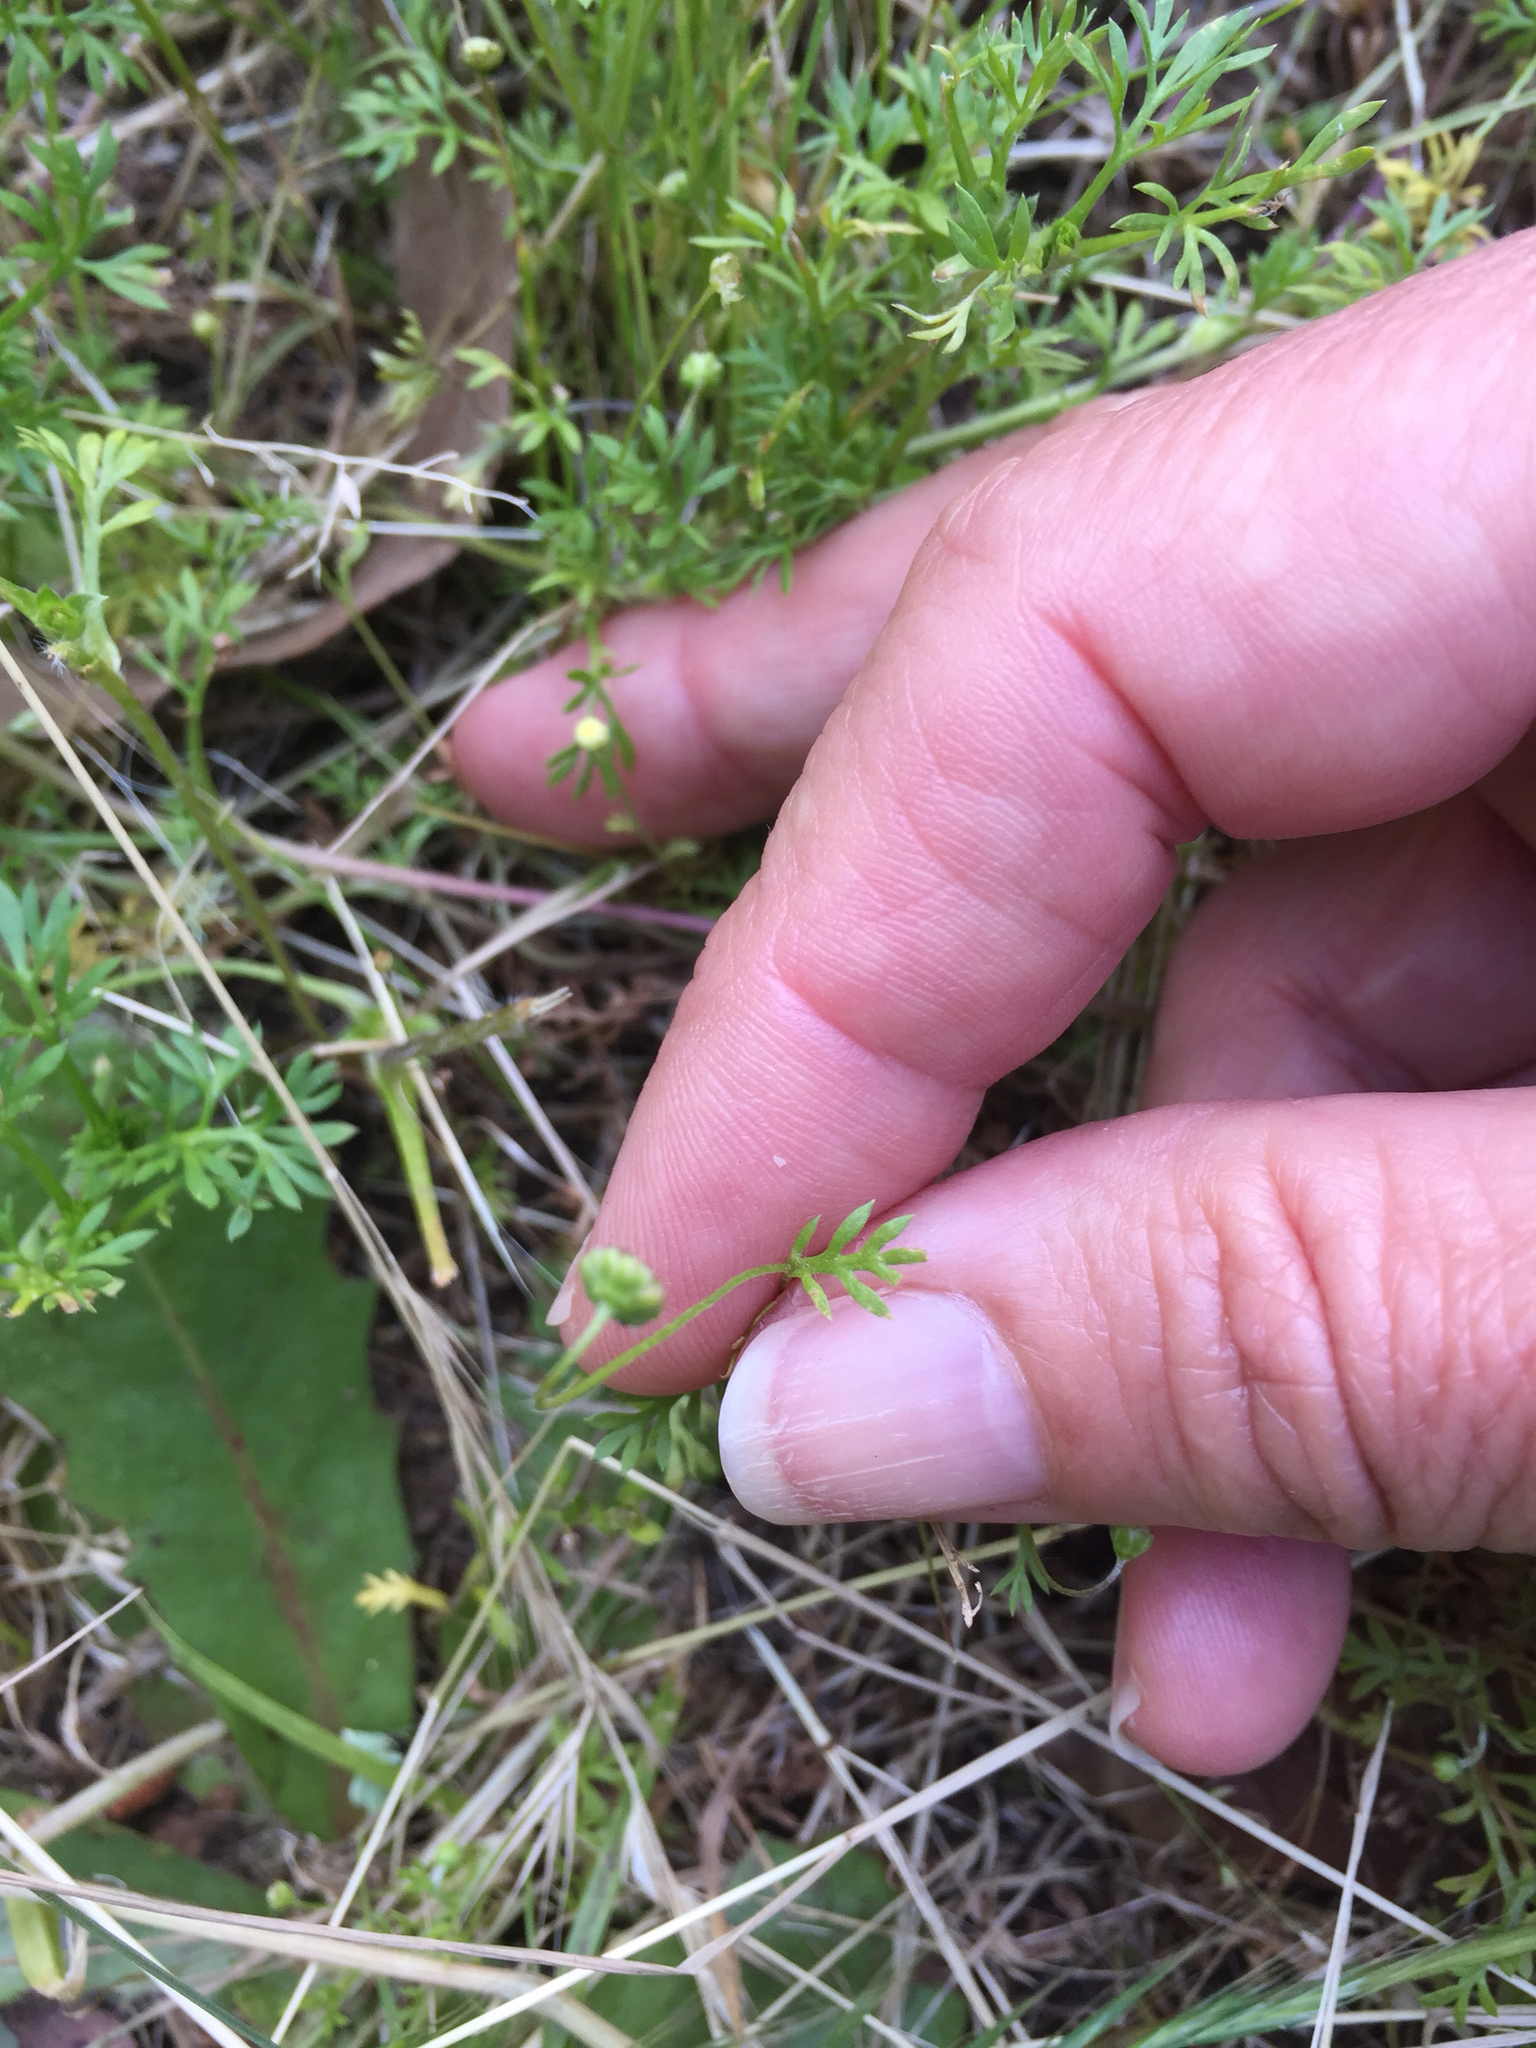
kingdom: Plantae
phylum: Tracheophyta
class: Magnoliopsida
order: Asterales
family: Asteraceae
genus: Cotula
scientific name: Cotula australis
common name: Australian waterbuttons
